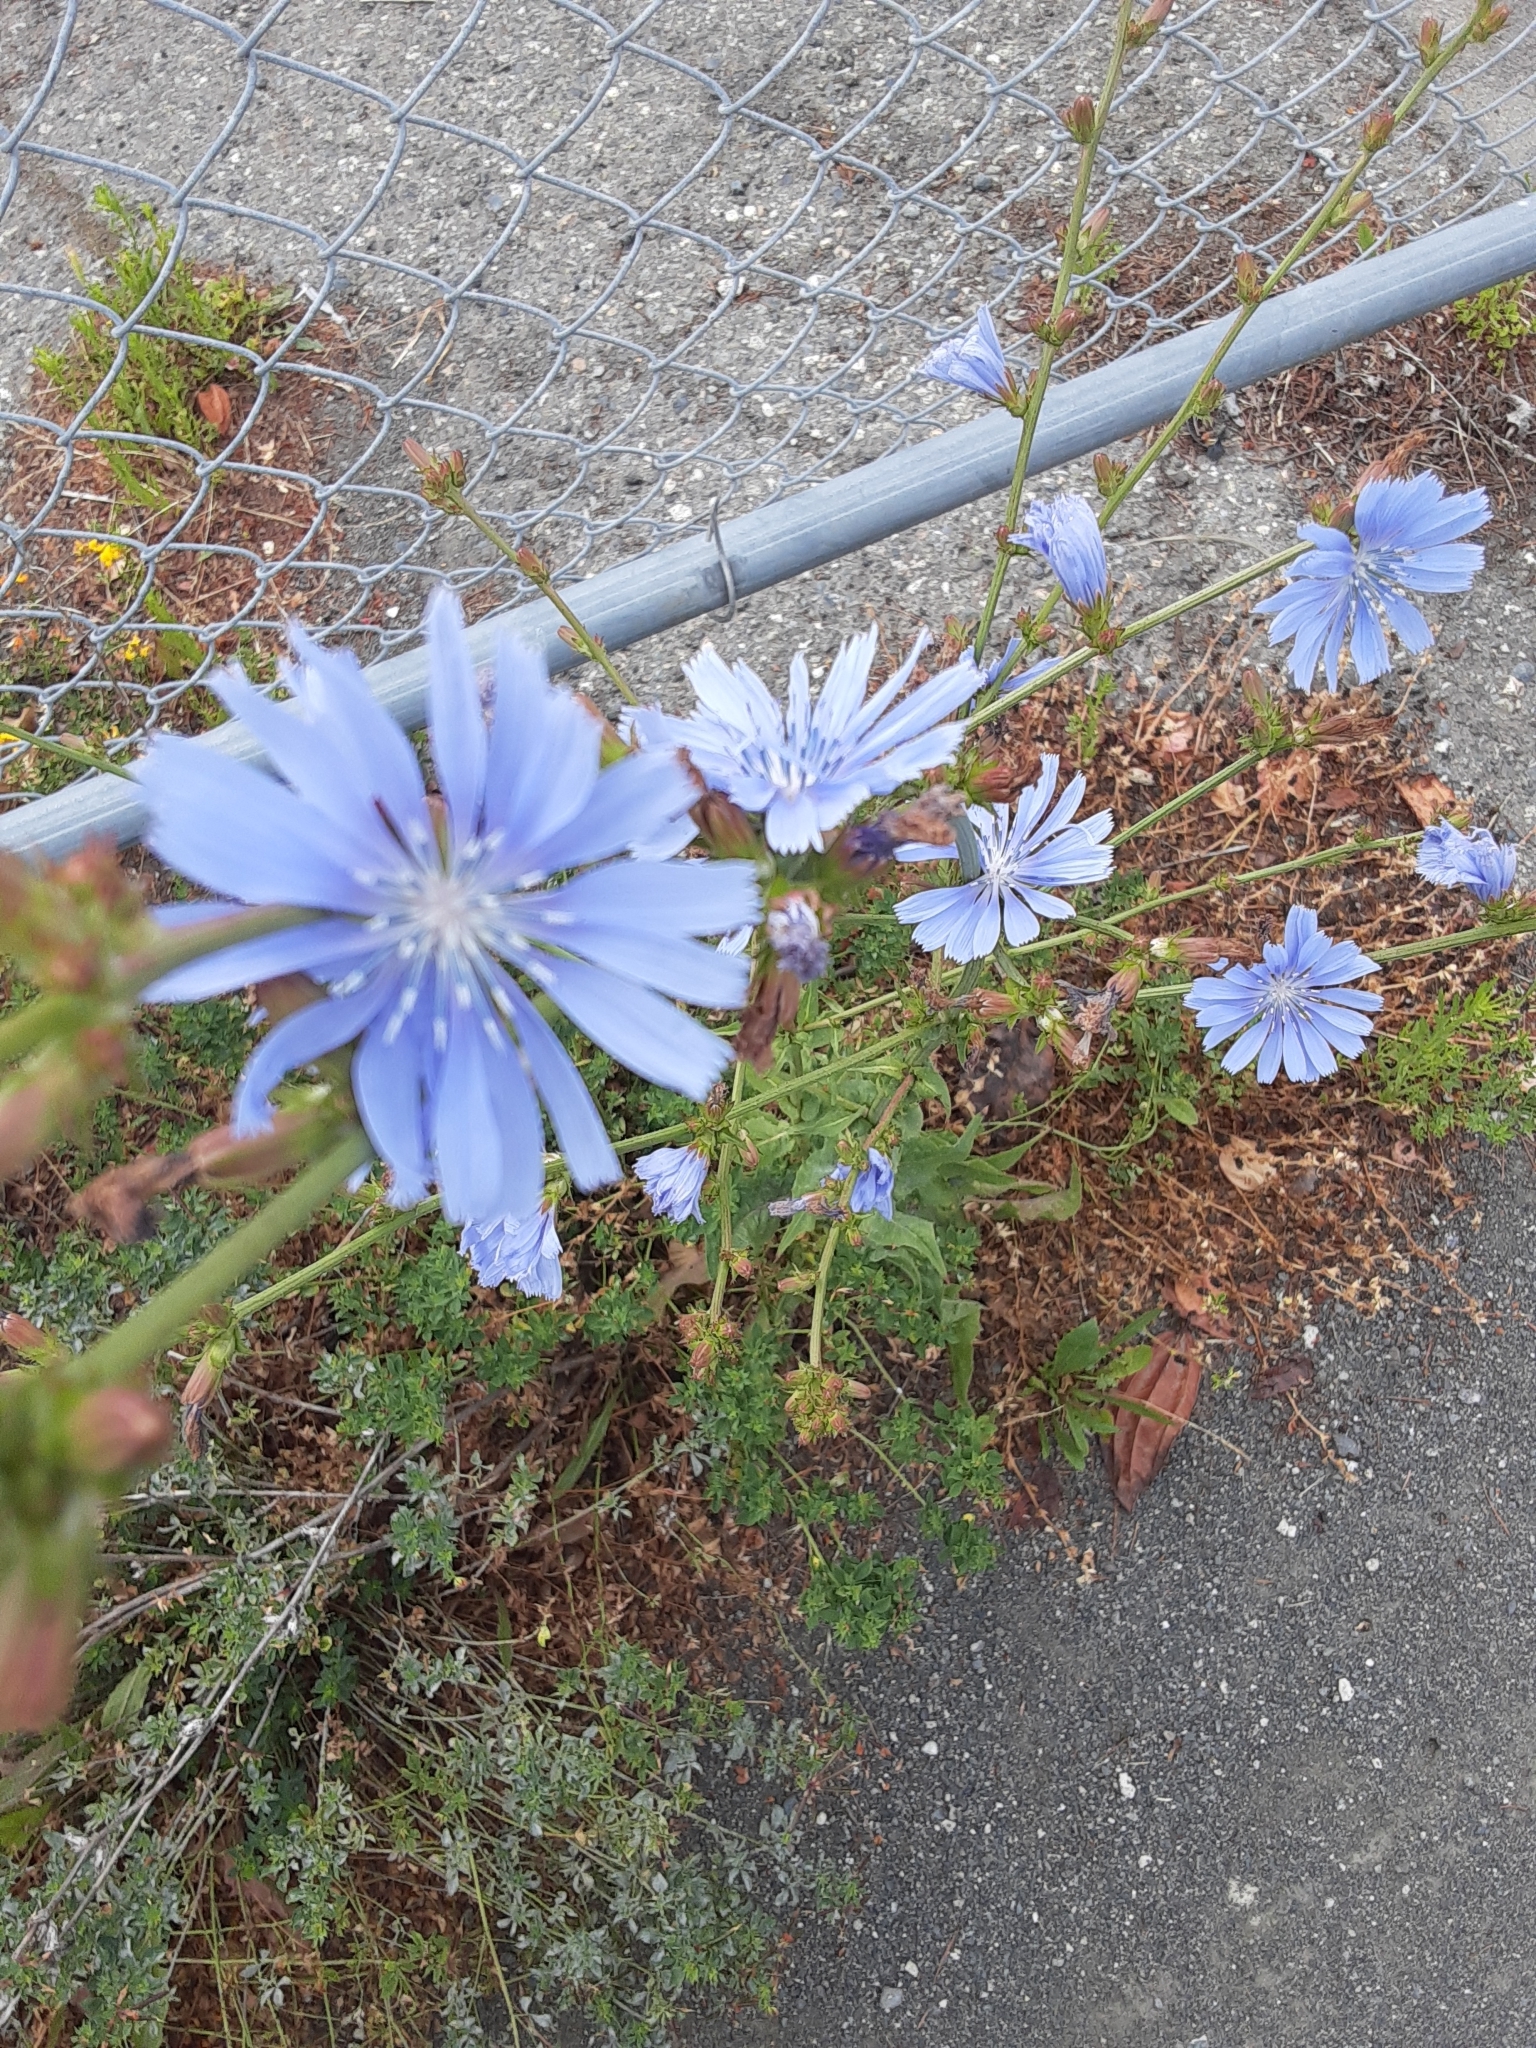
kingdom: Plantae
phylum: Tracheophyta
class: Magnoliopsida
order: Asterales
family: Asteraceae
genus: Cichorium
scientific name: Cichorium intybus
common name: Chicory
